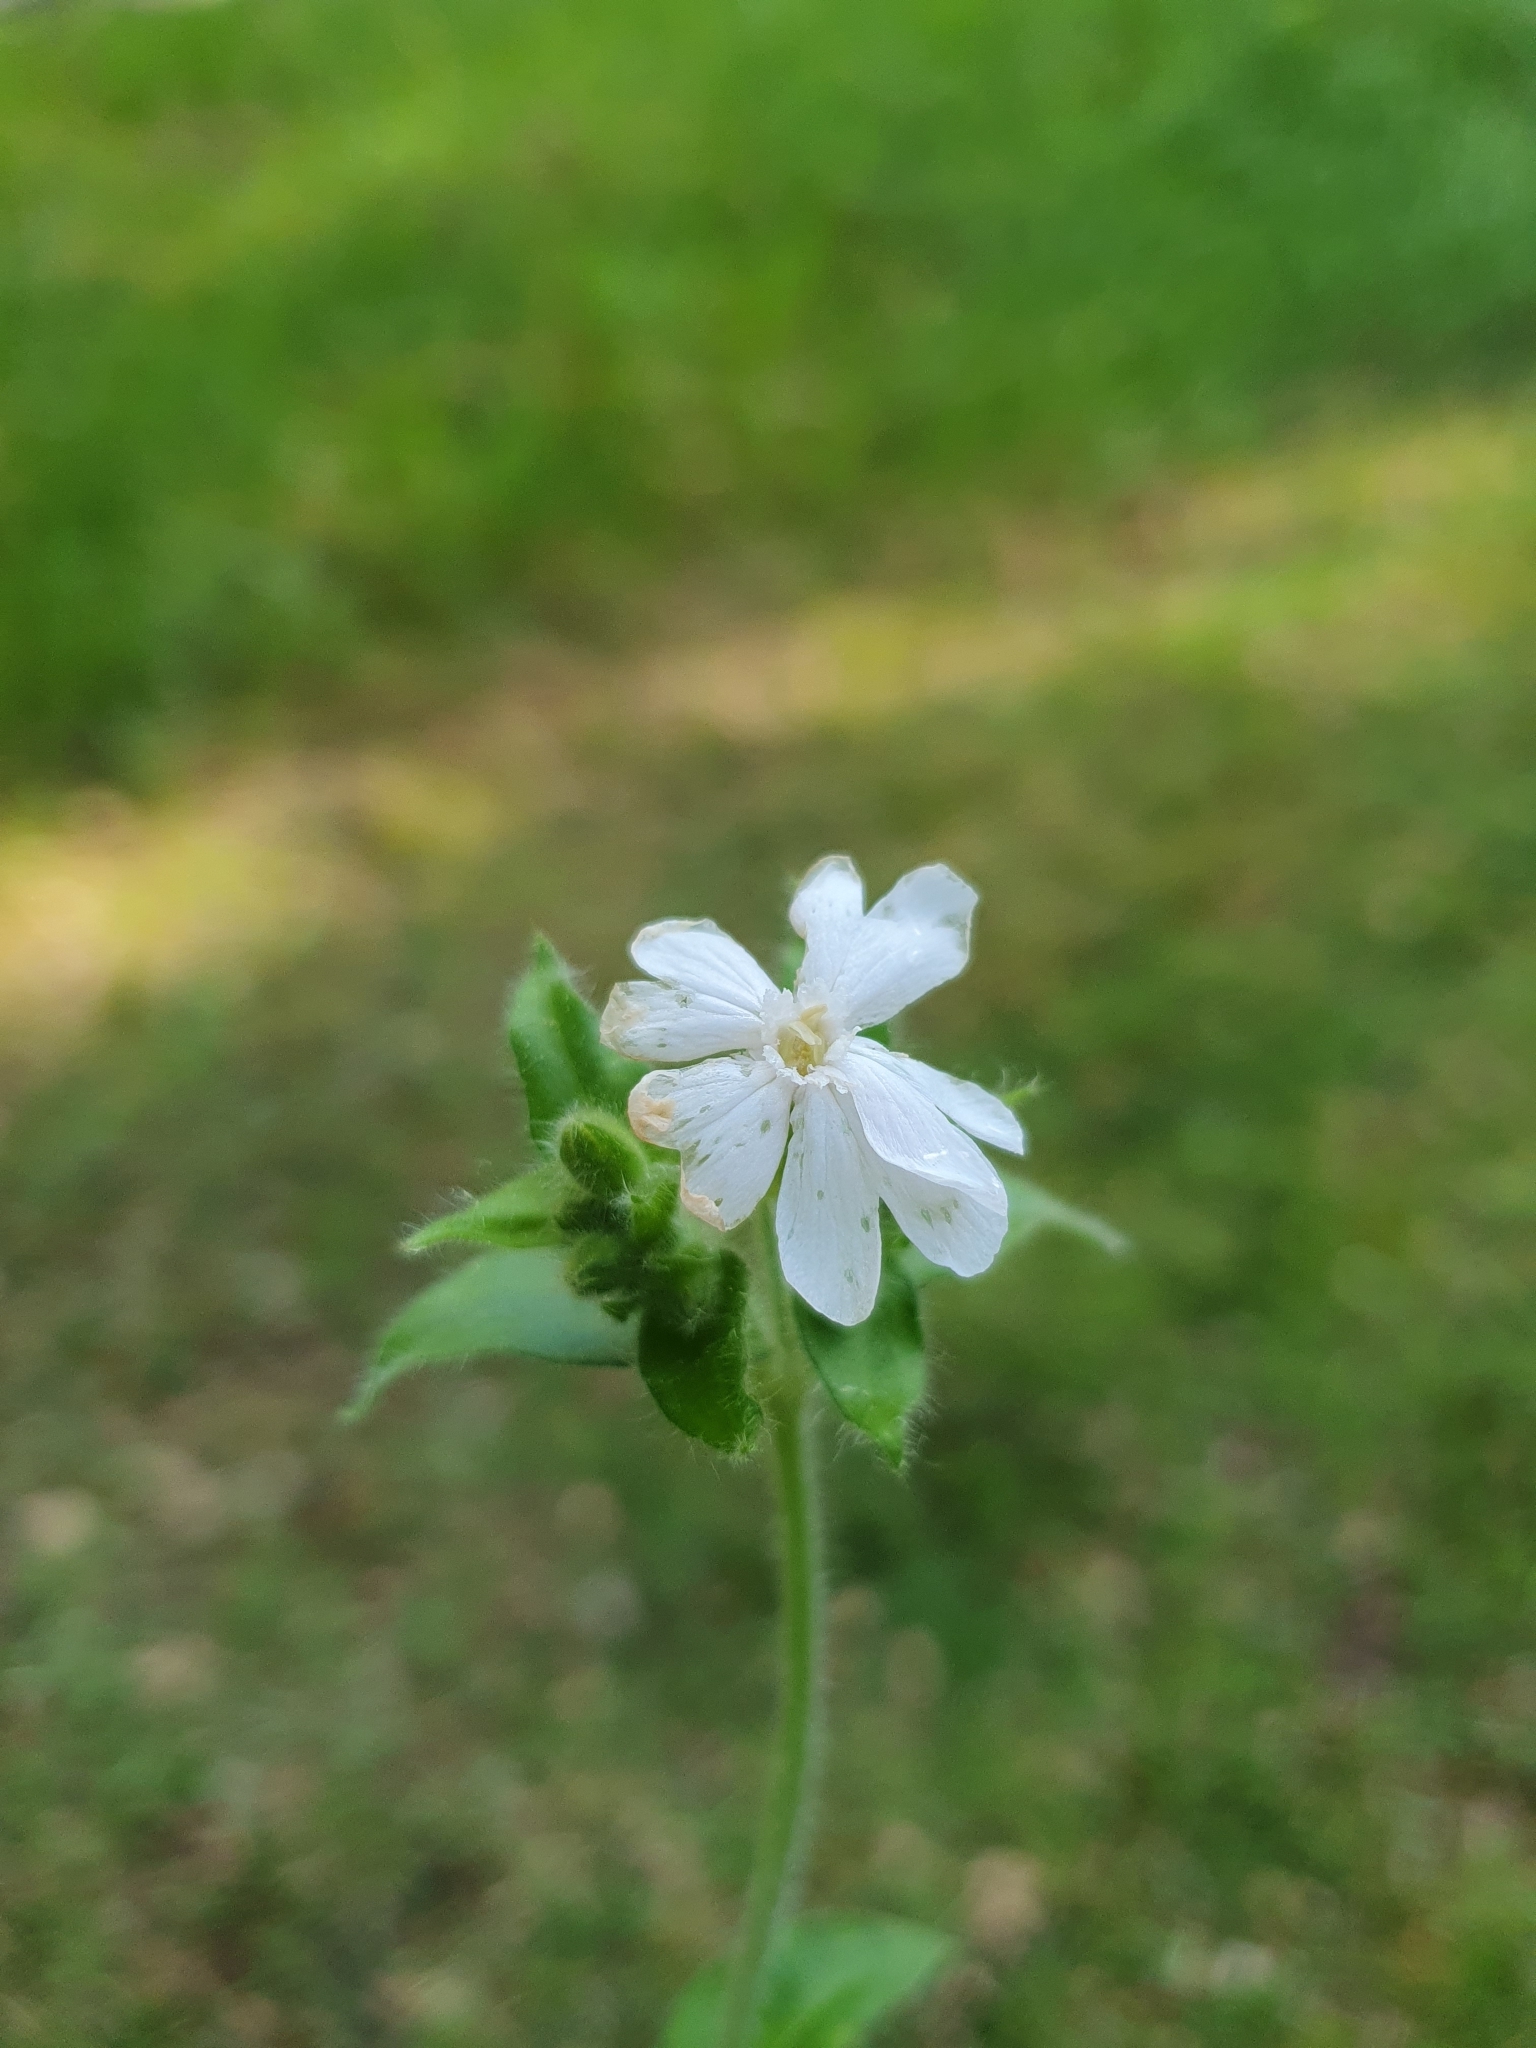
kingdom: Plantae
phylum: Tracheophyta
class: Magnoliopsida
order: Caryophyllales
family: Caryophyllaceae
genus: Silene
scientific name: Silene latifolia
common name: White campion
